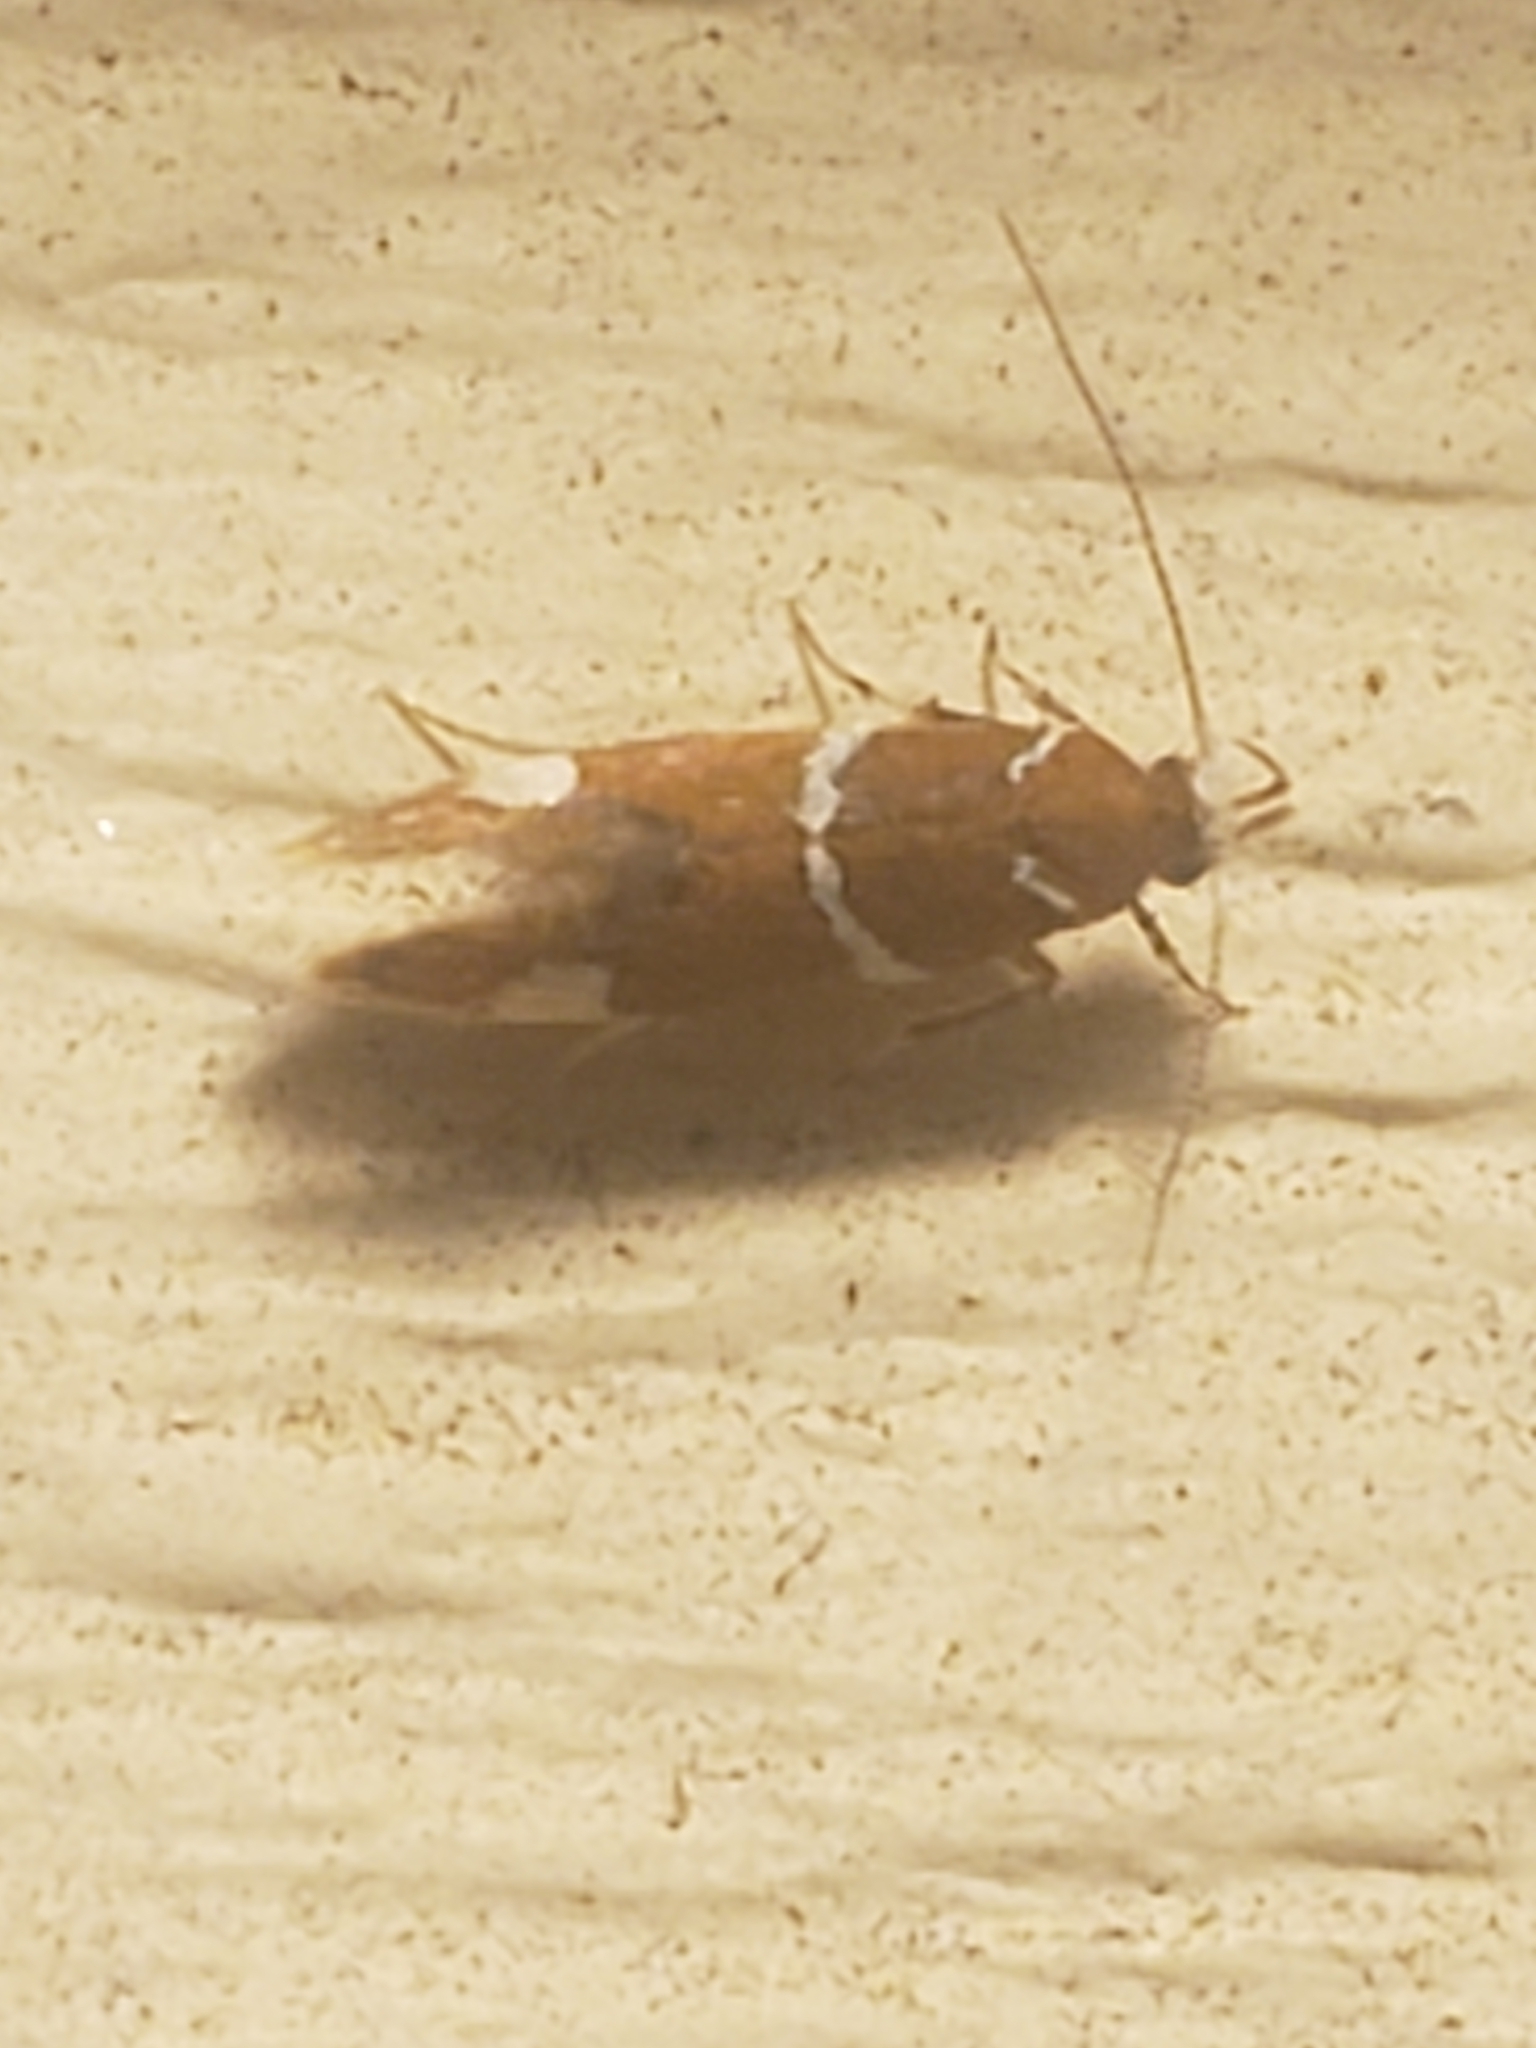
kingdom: Animalia
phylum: Arthropoda
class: Insecta
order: Lepidoptera
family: Oecophoridae
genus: Promalactis
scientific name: Promalactis suzukiella
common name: Moth
